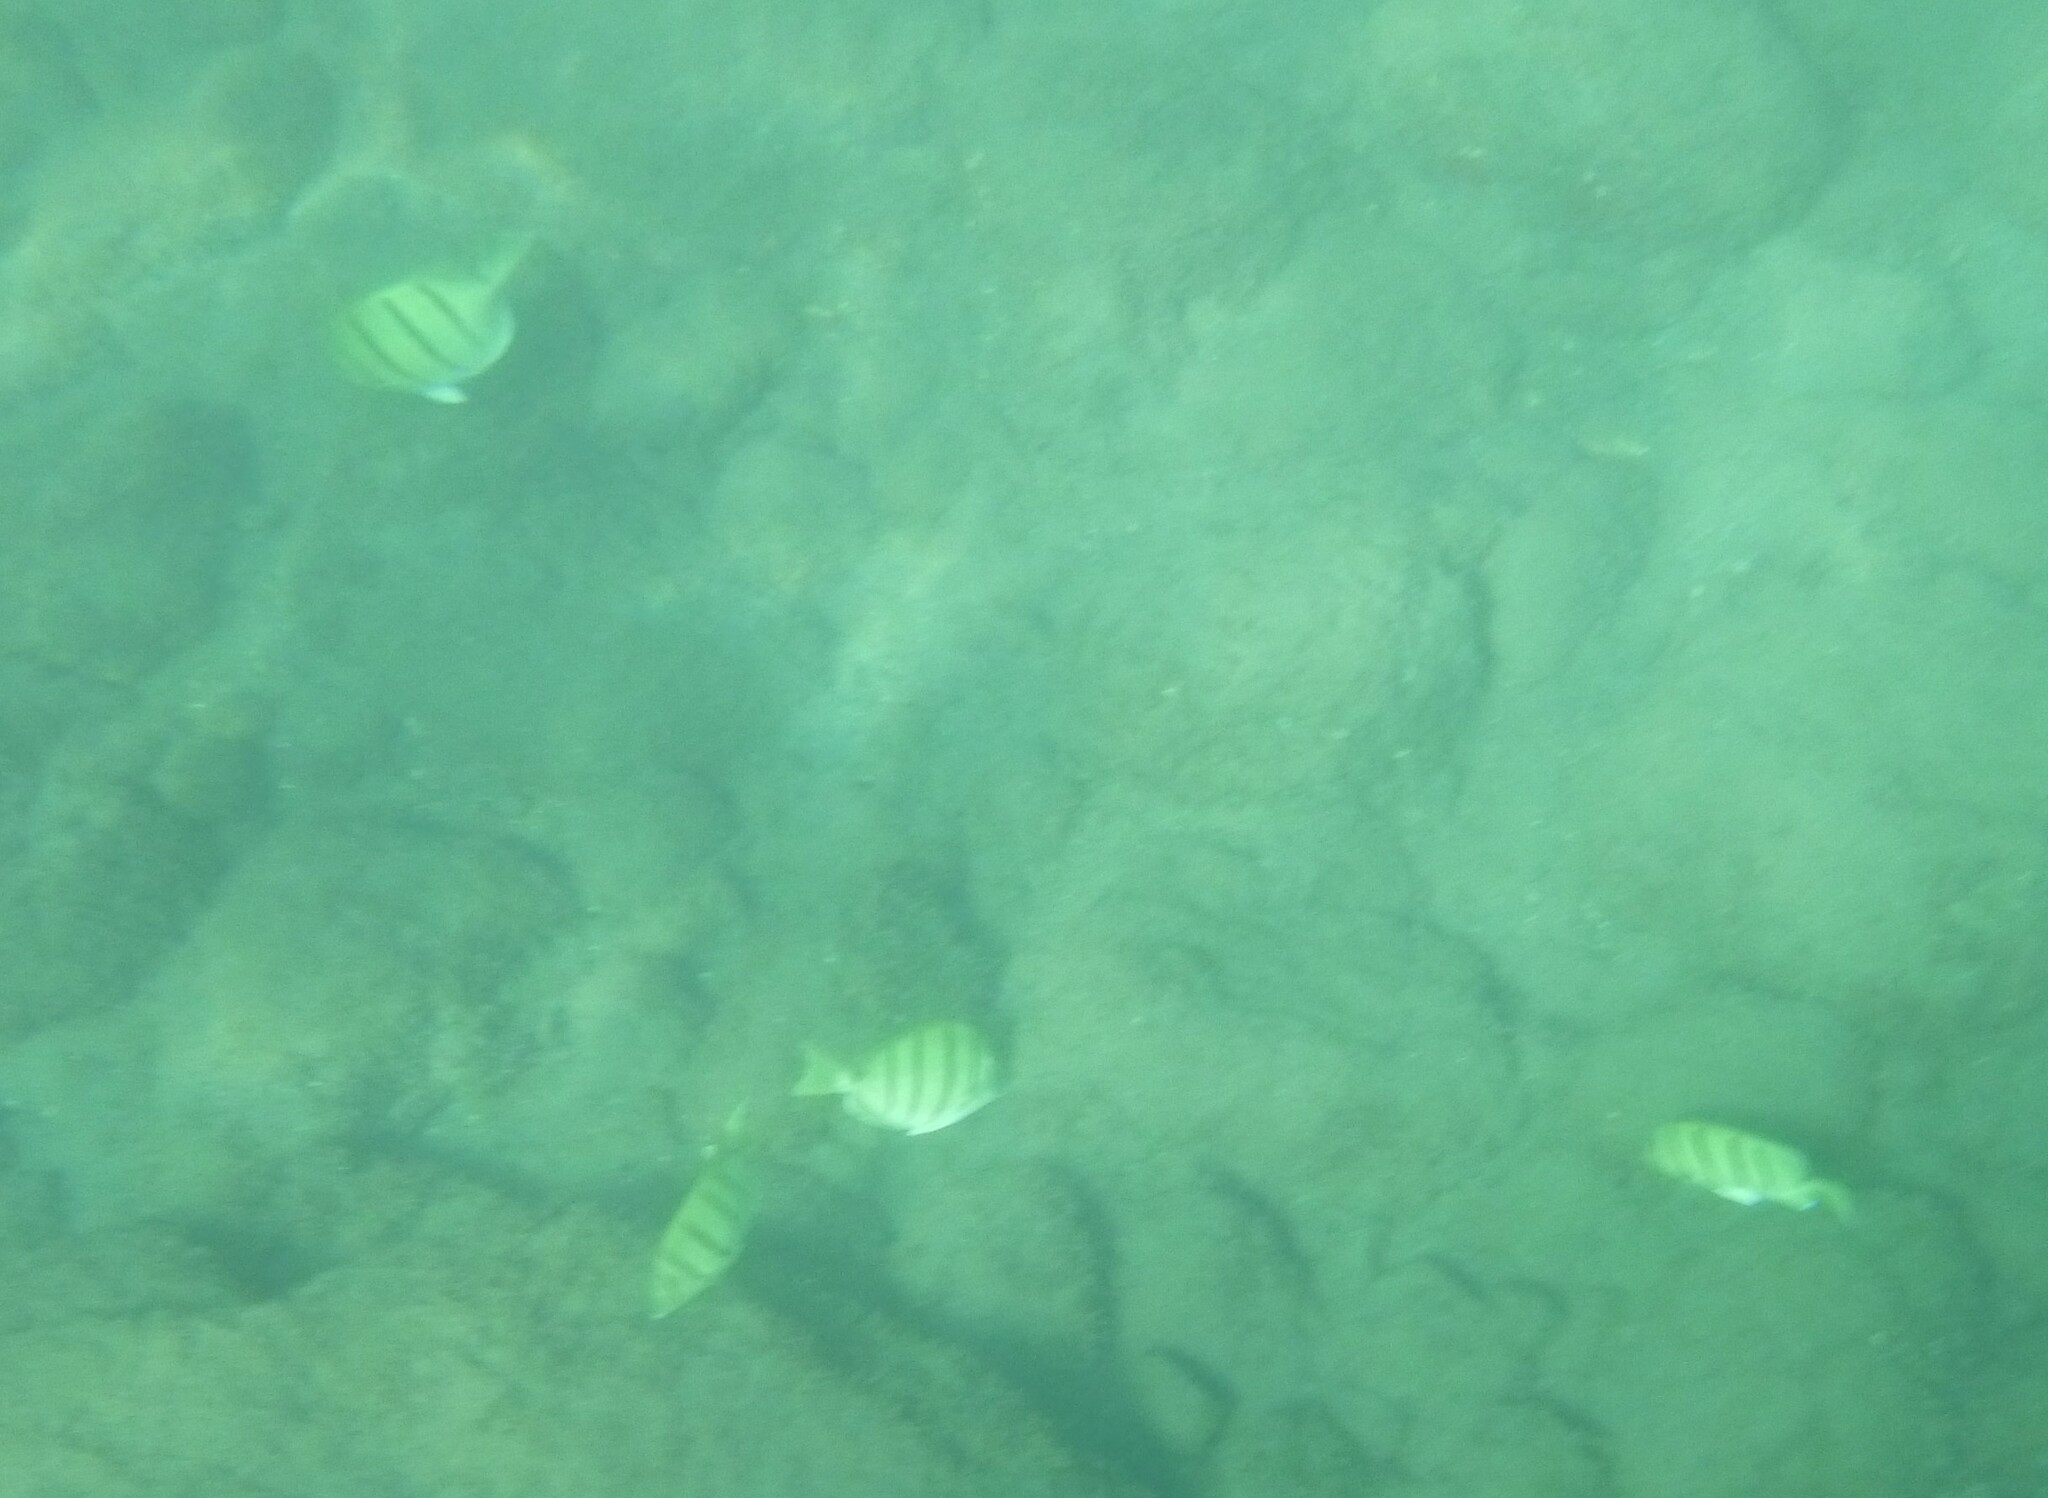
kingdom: Animalia
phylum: Chordata
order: Perciformes
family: Acanthuridae
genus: Acanthurus
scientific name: Acanthurus triostegus
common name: Convict surgeonfish
